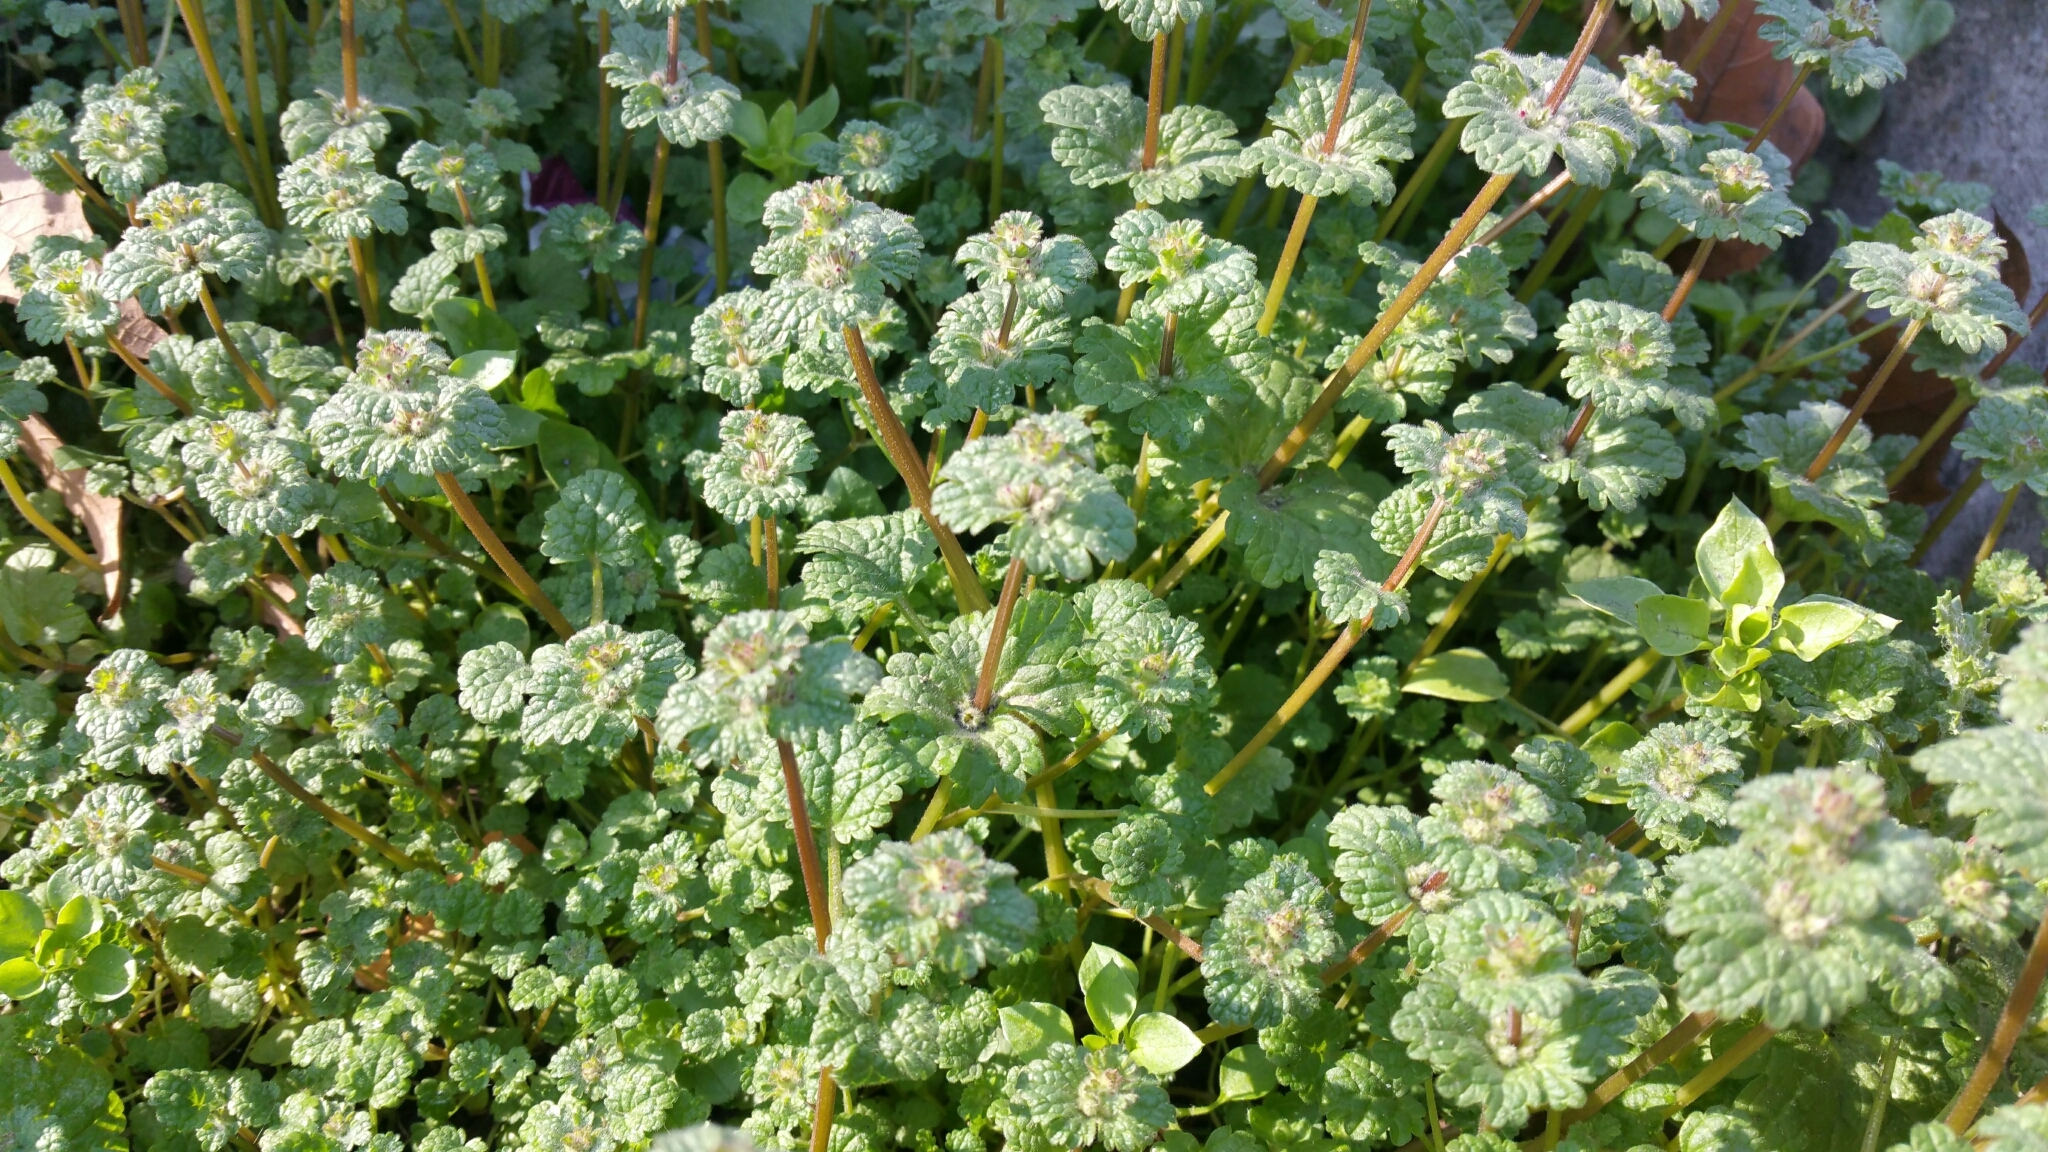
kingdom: Plantae
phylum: Tracheophyta
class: Magnoliopsida
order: Lamiales
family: Lamiaceae
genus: Lamium
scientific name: Lamium amplexicaule
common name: Henbit dead-nettle
